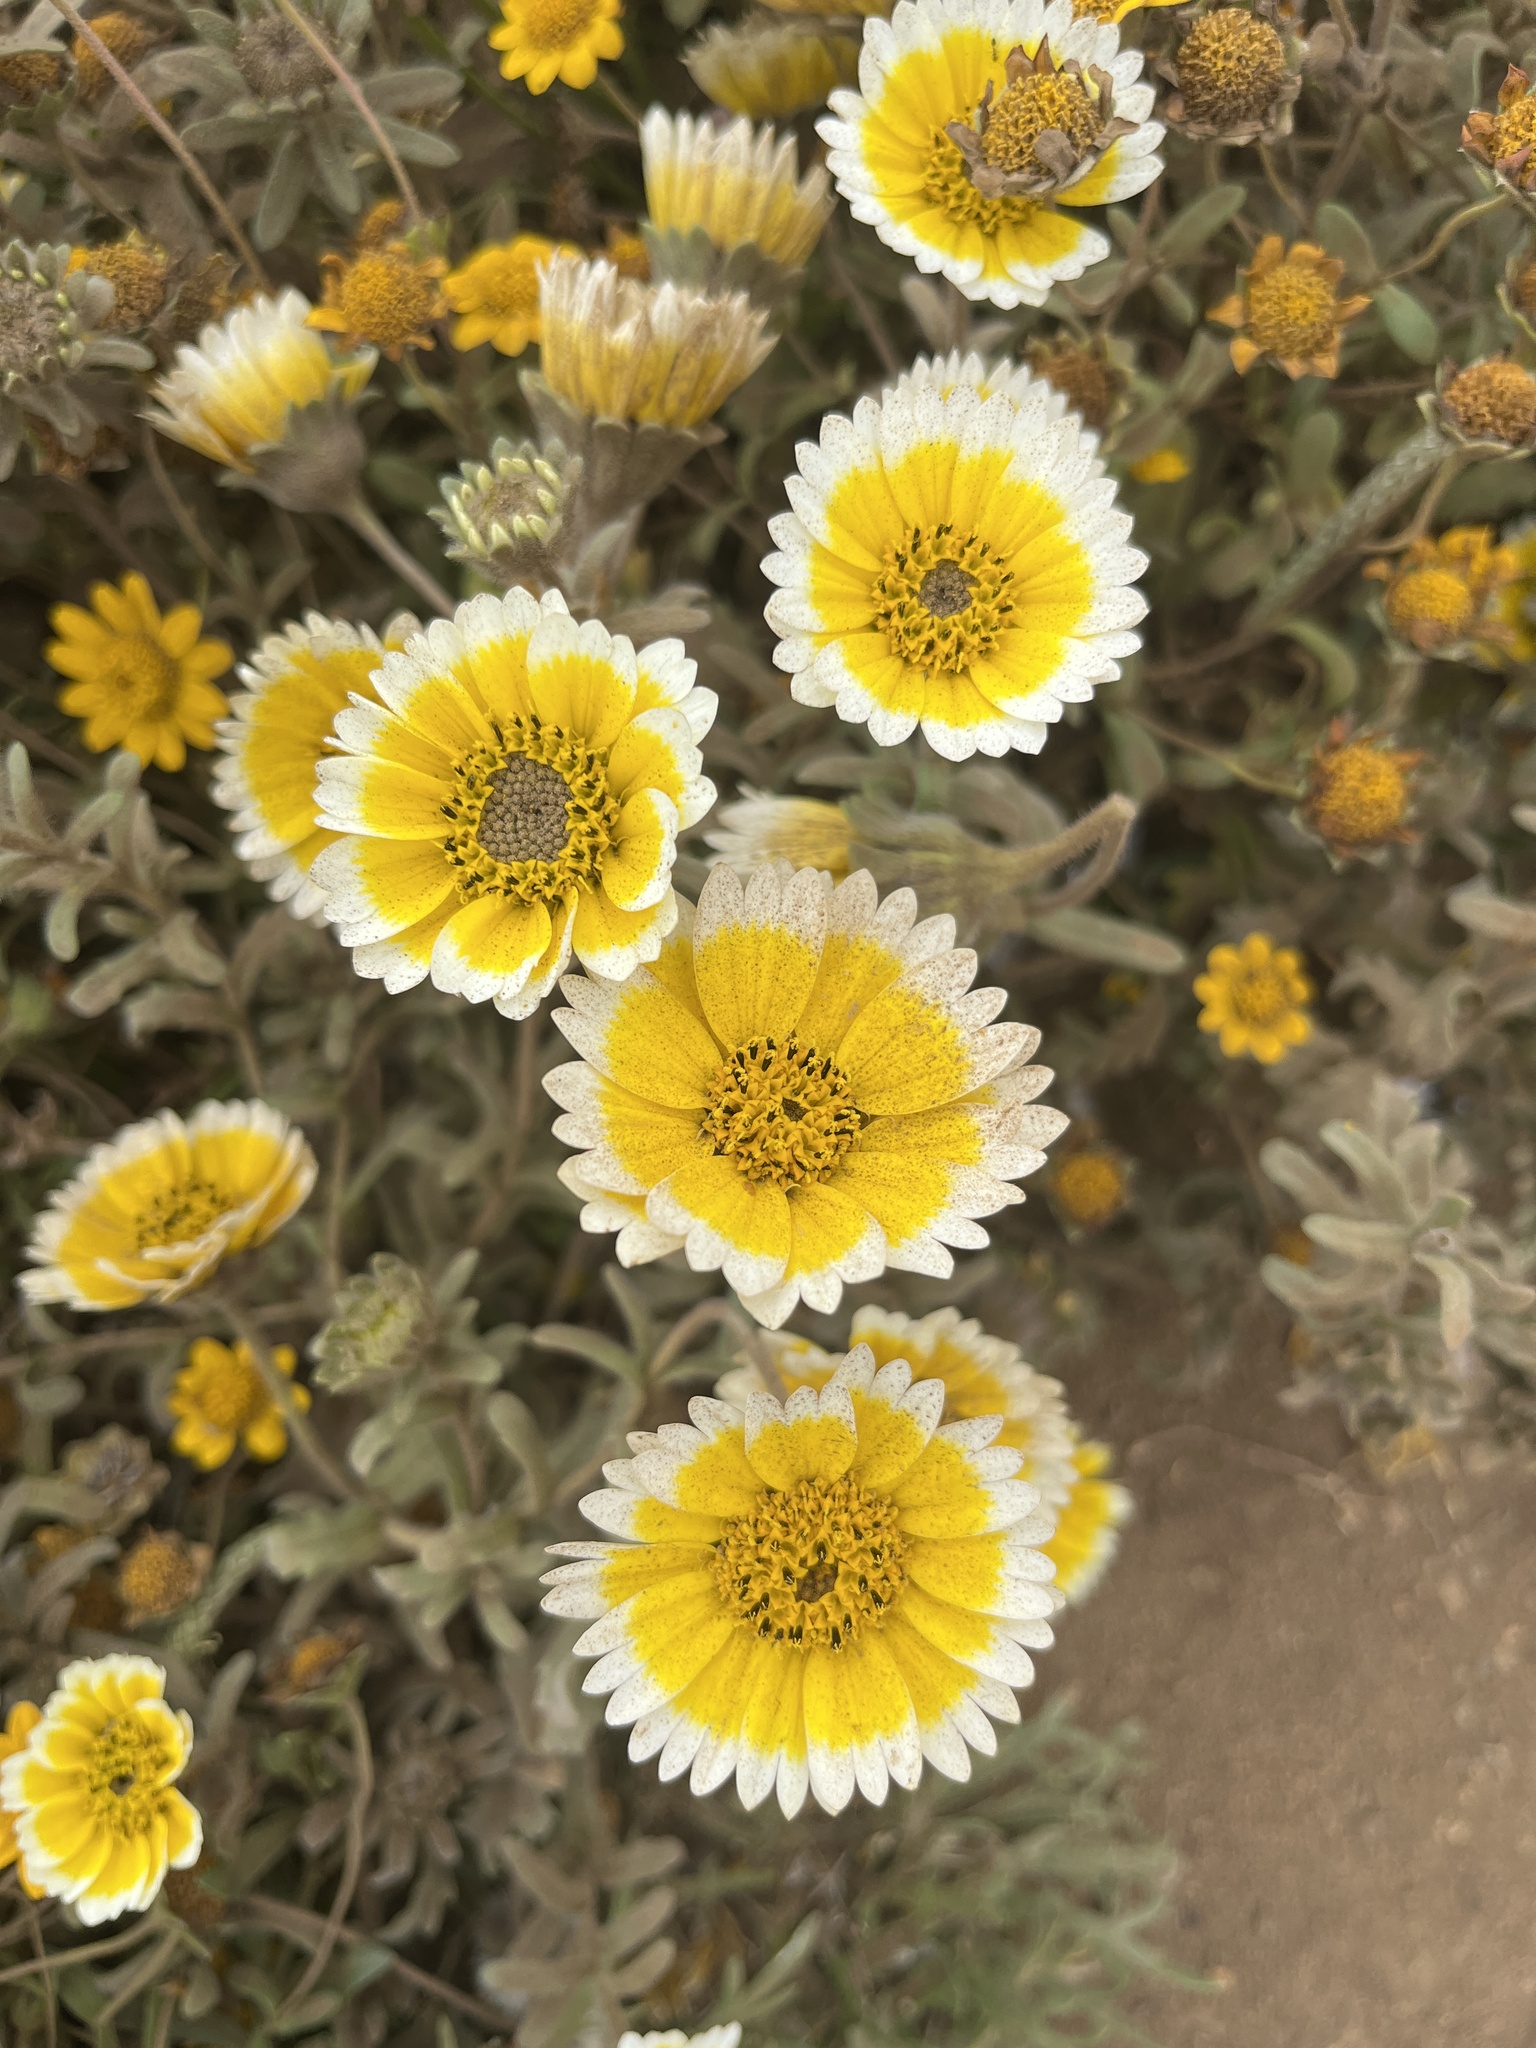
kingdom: Plantae
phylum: Tracheophyta
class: Magnoliopsida
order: Asterales
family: Asteraceae
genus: Layia
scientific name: Layia platyglossa
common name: Tidy-tips
